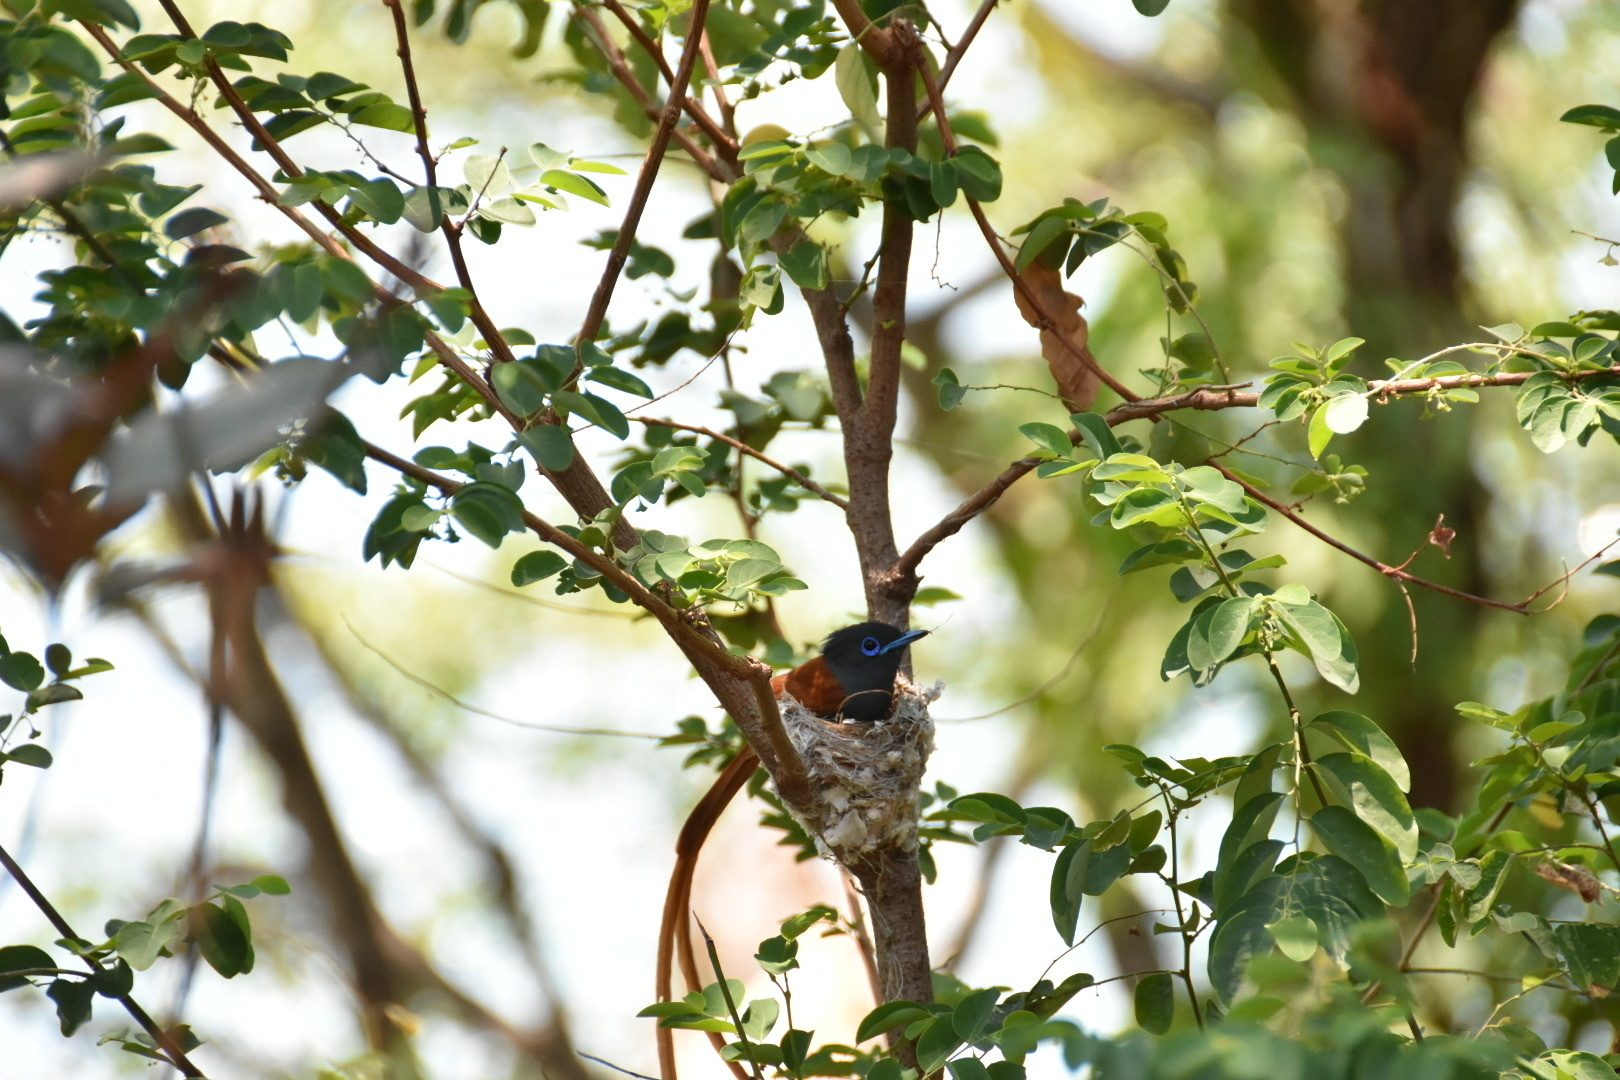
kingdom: Animalia
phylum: Chordata
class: Aves
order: Passeriformes
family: Monarchidae
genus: Terpsiphone
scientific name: Terpsiphone viridis
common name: African paradise flycatcher
